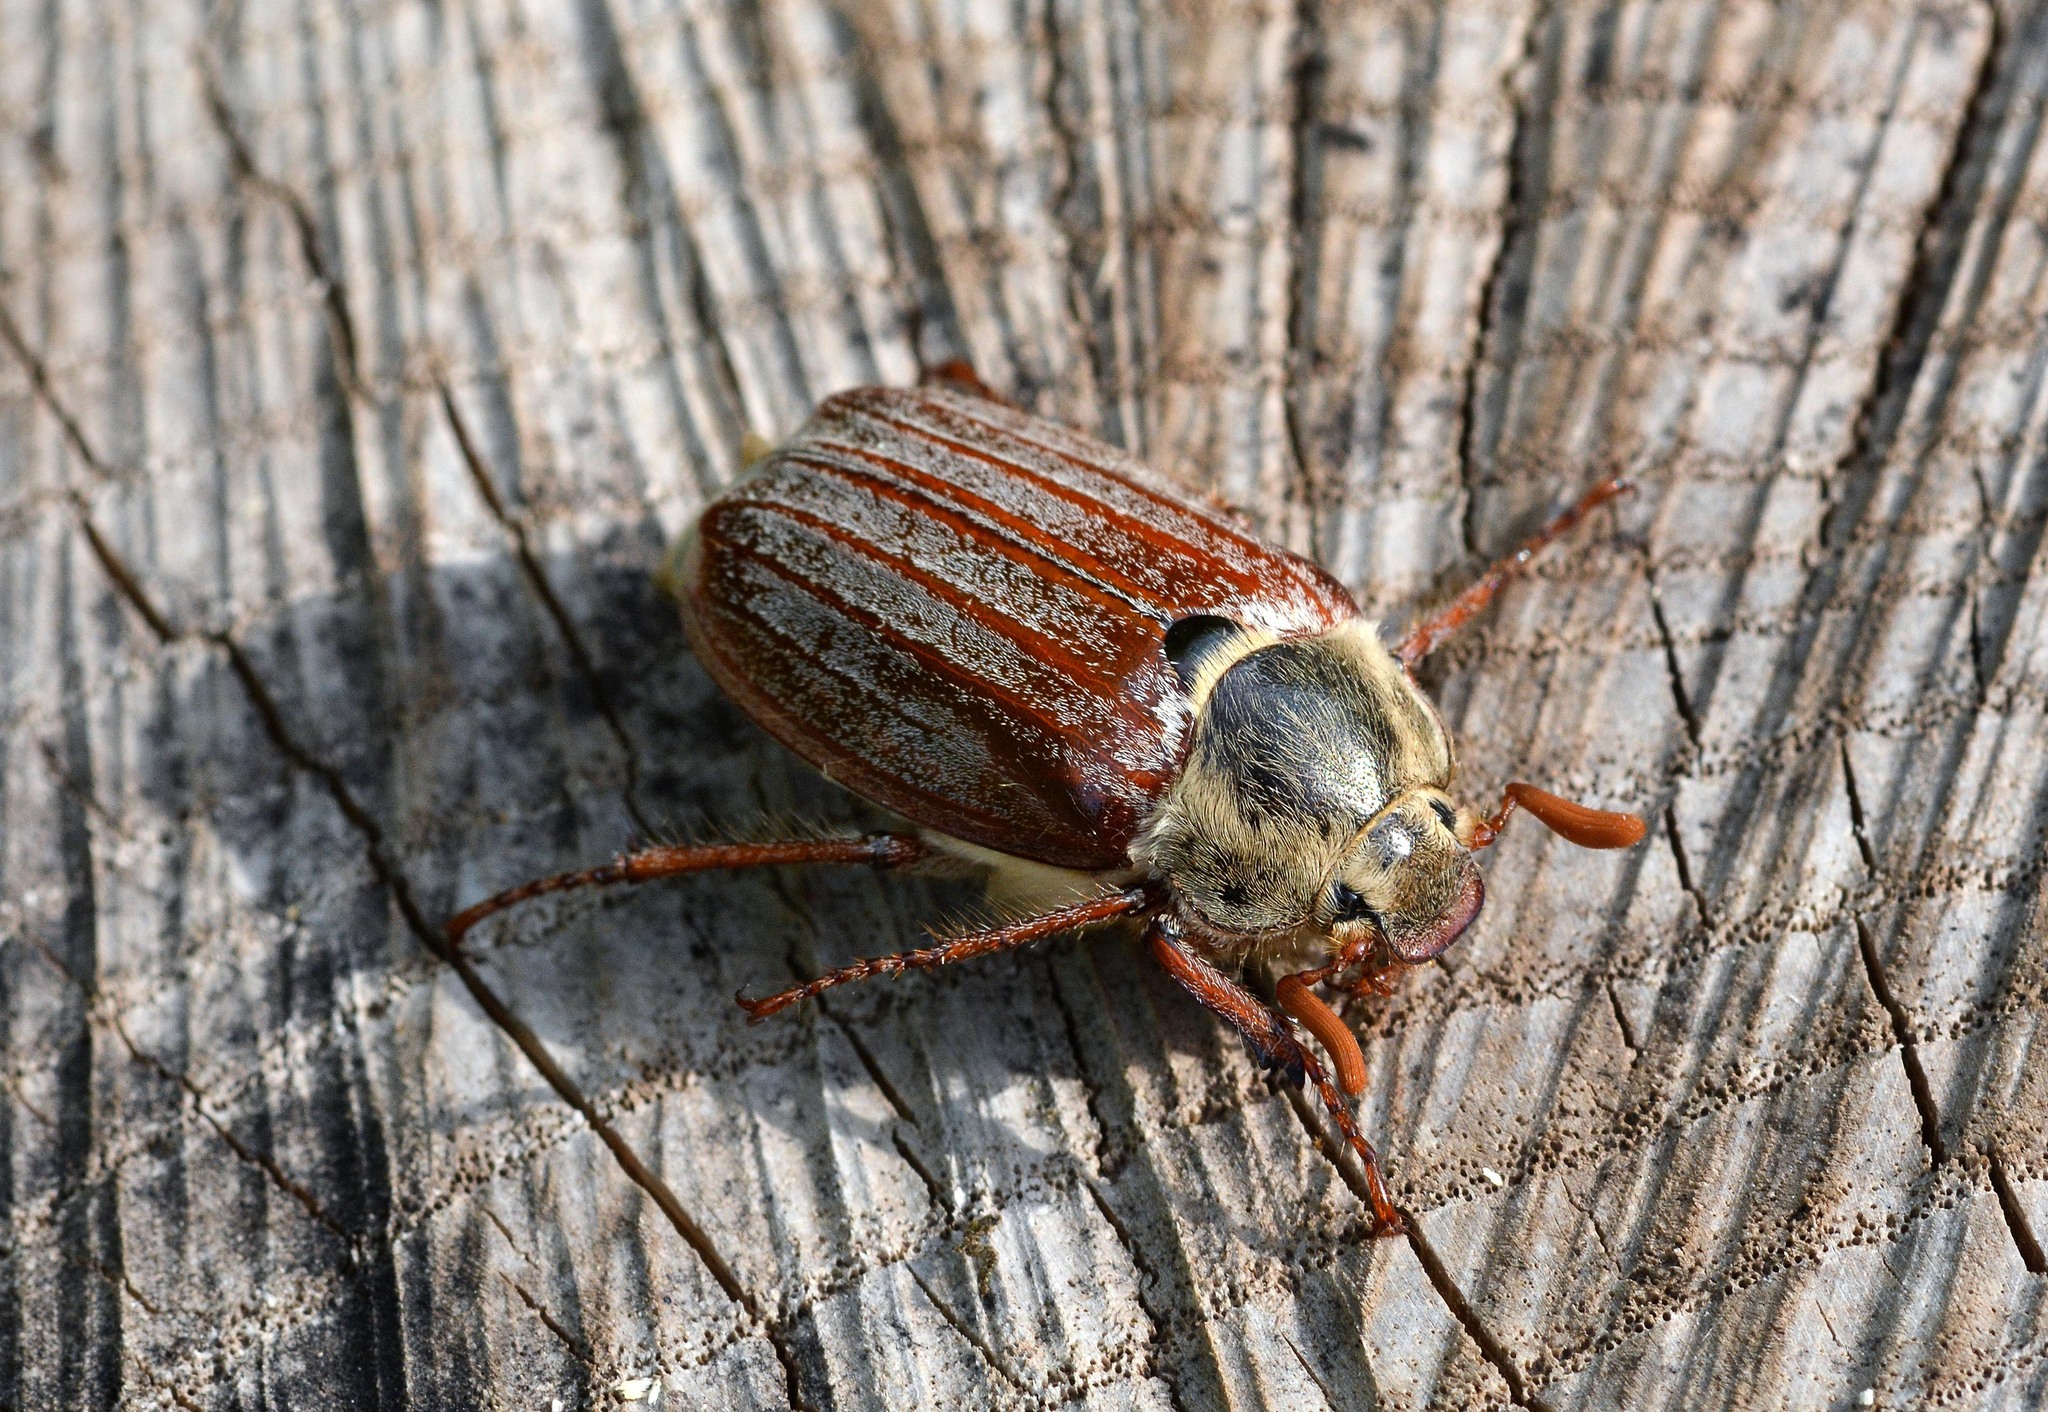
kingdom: Animalia
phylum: Arthropoda
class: Insecta
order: Coleoptera
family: Scarabaeidae
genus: Melolontha
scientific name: Melolontha melolontha
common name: Cockchafer maybeetle
